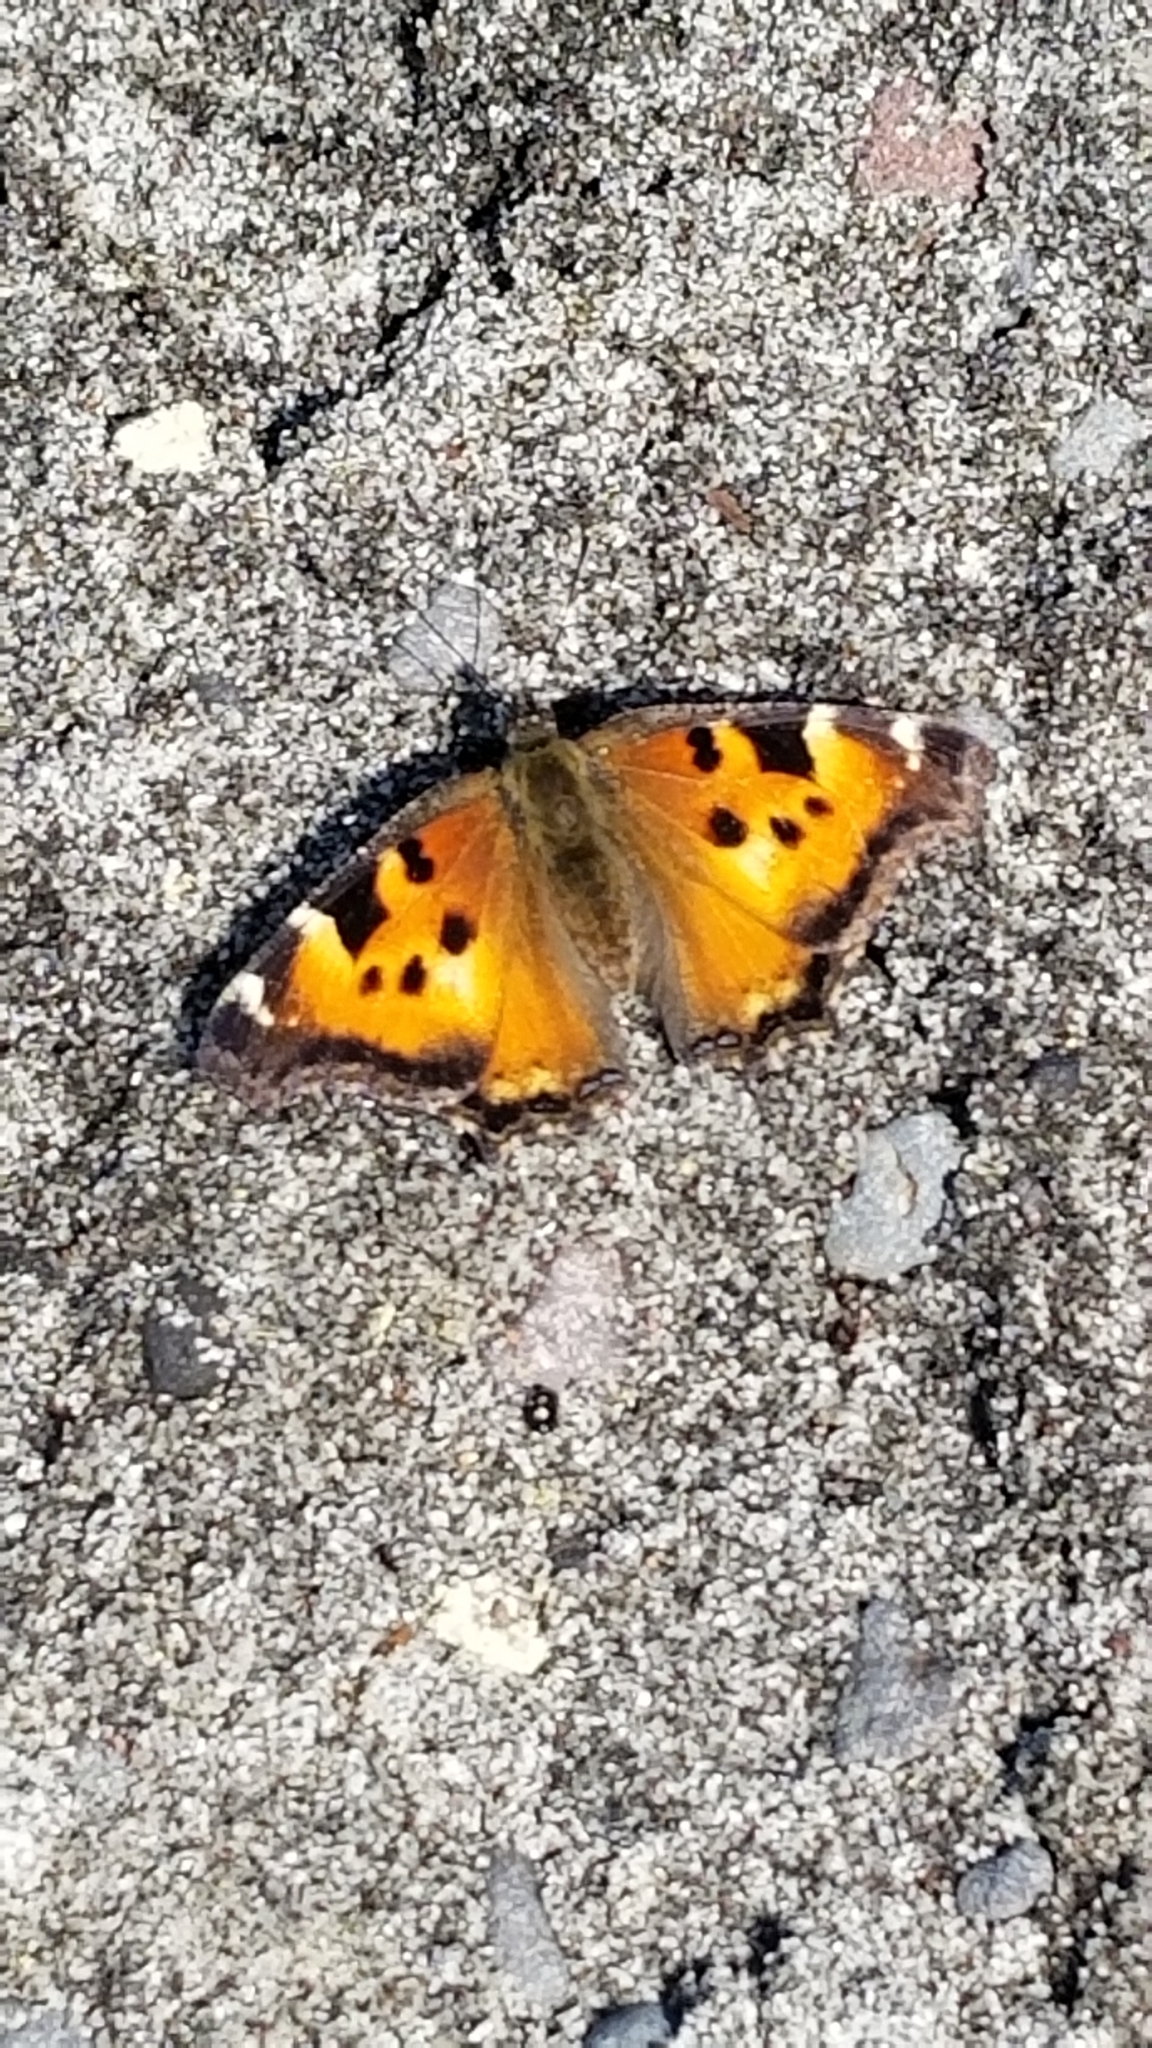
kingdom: Animalia
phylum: Arthropoda
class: Insecta
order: Lepidoptera
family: Nymphalidae
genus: Nymphalis
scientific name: Nymphalis californica
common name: California tortoiseshell
